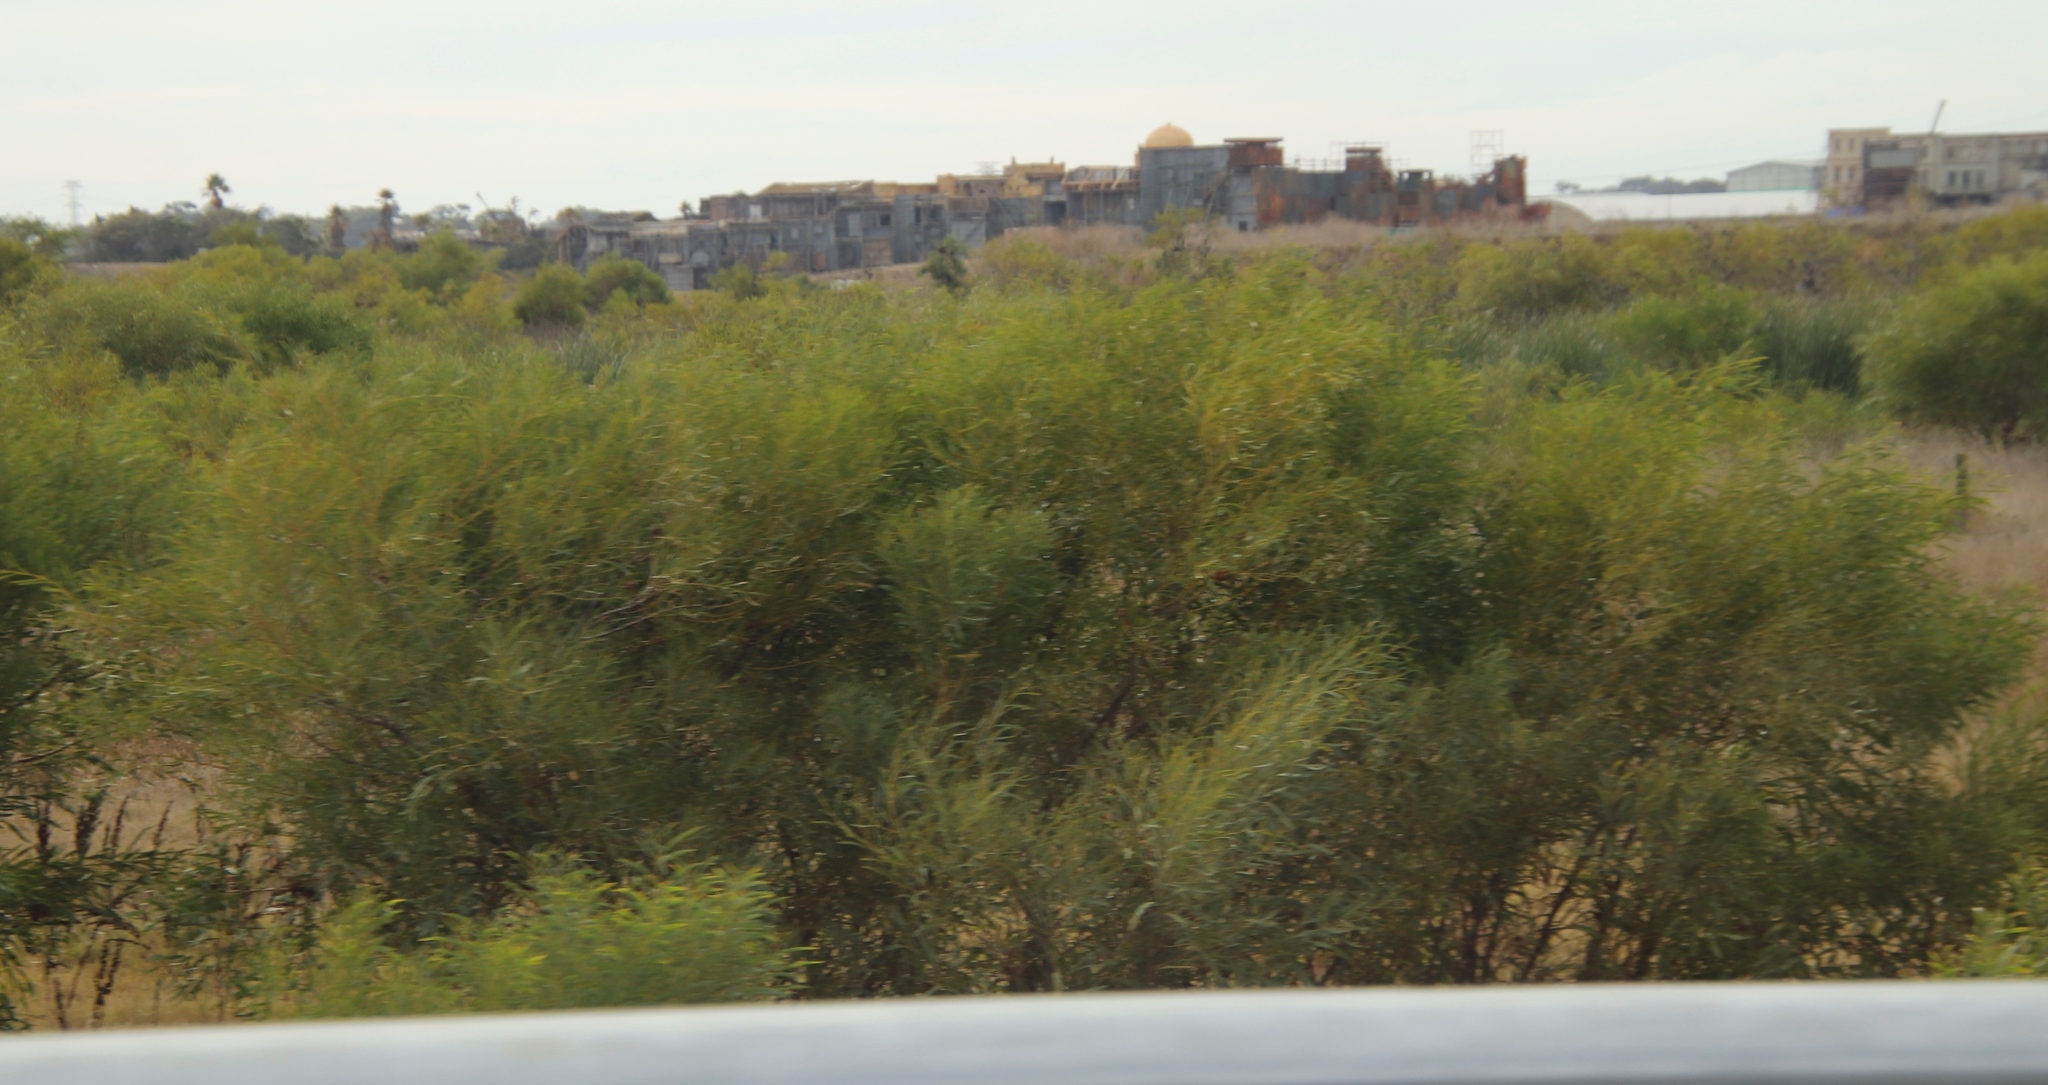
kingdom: Plantae
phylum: Tracheophyta
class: Magnoliopsida
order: Fabales
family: Fabaceae
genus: Acacia
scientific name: Acacia saligna
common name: Orange wattle
